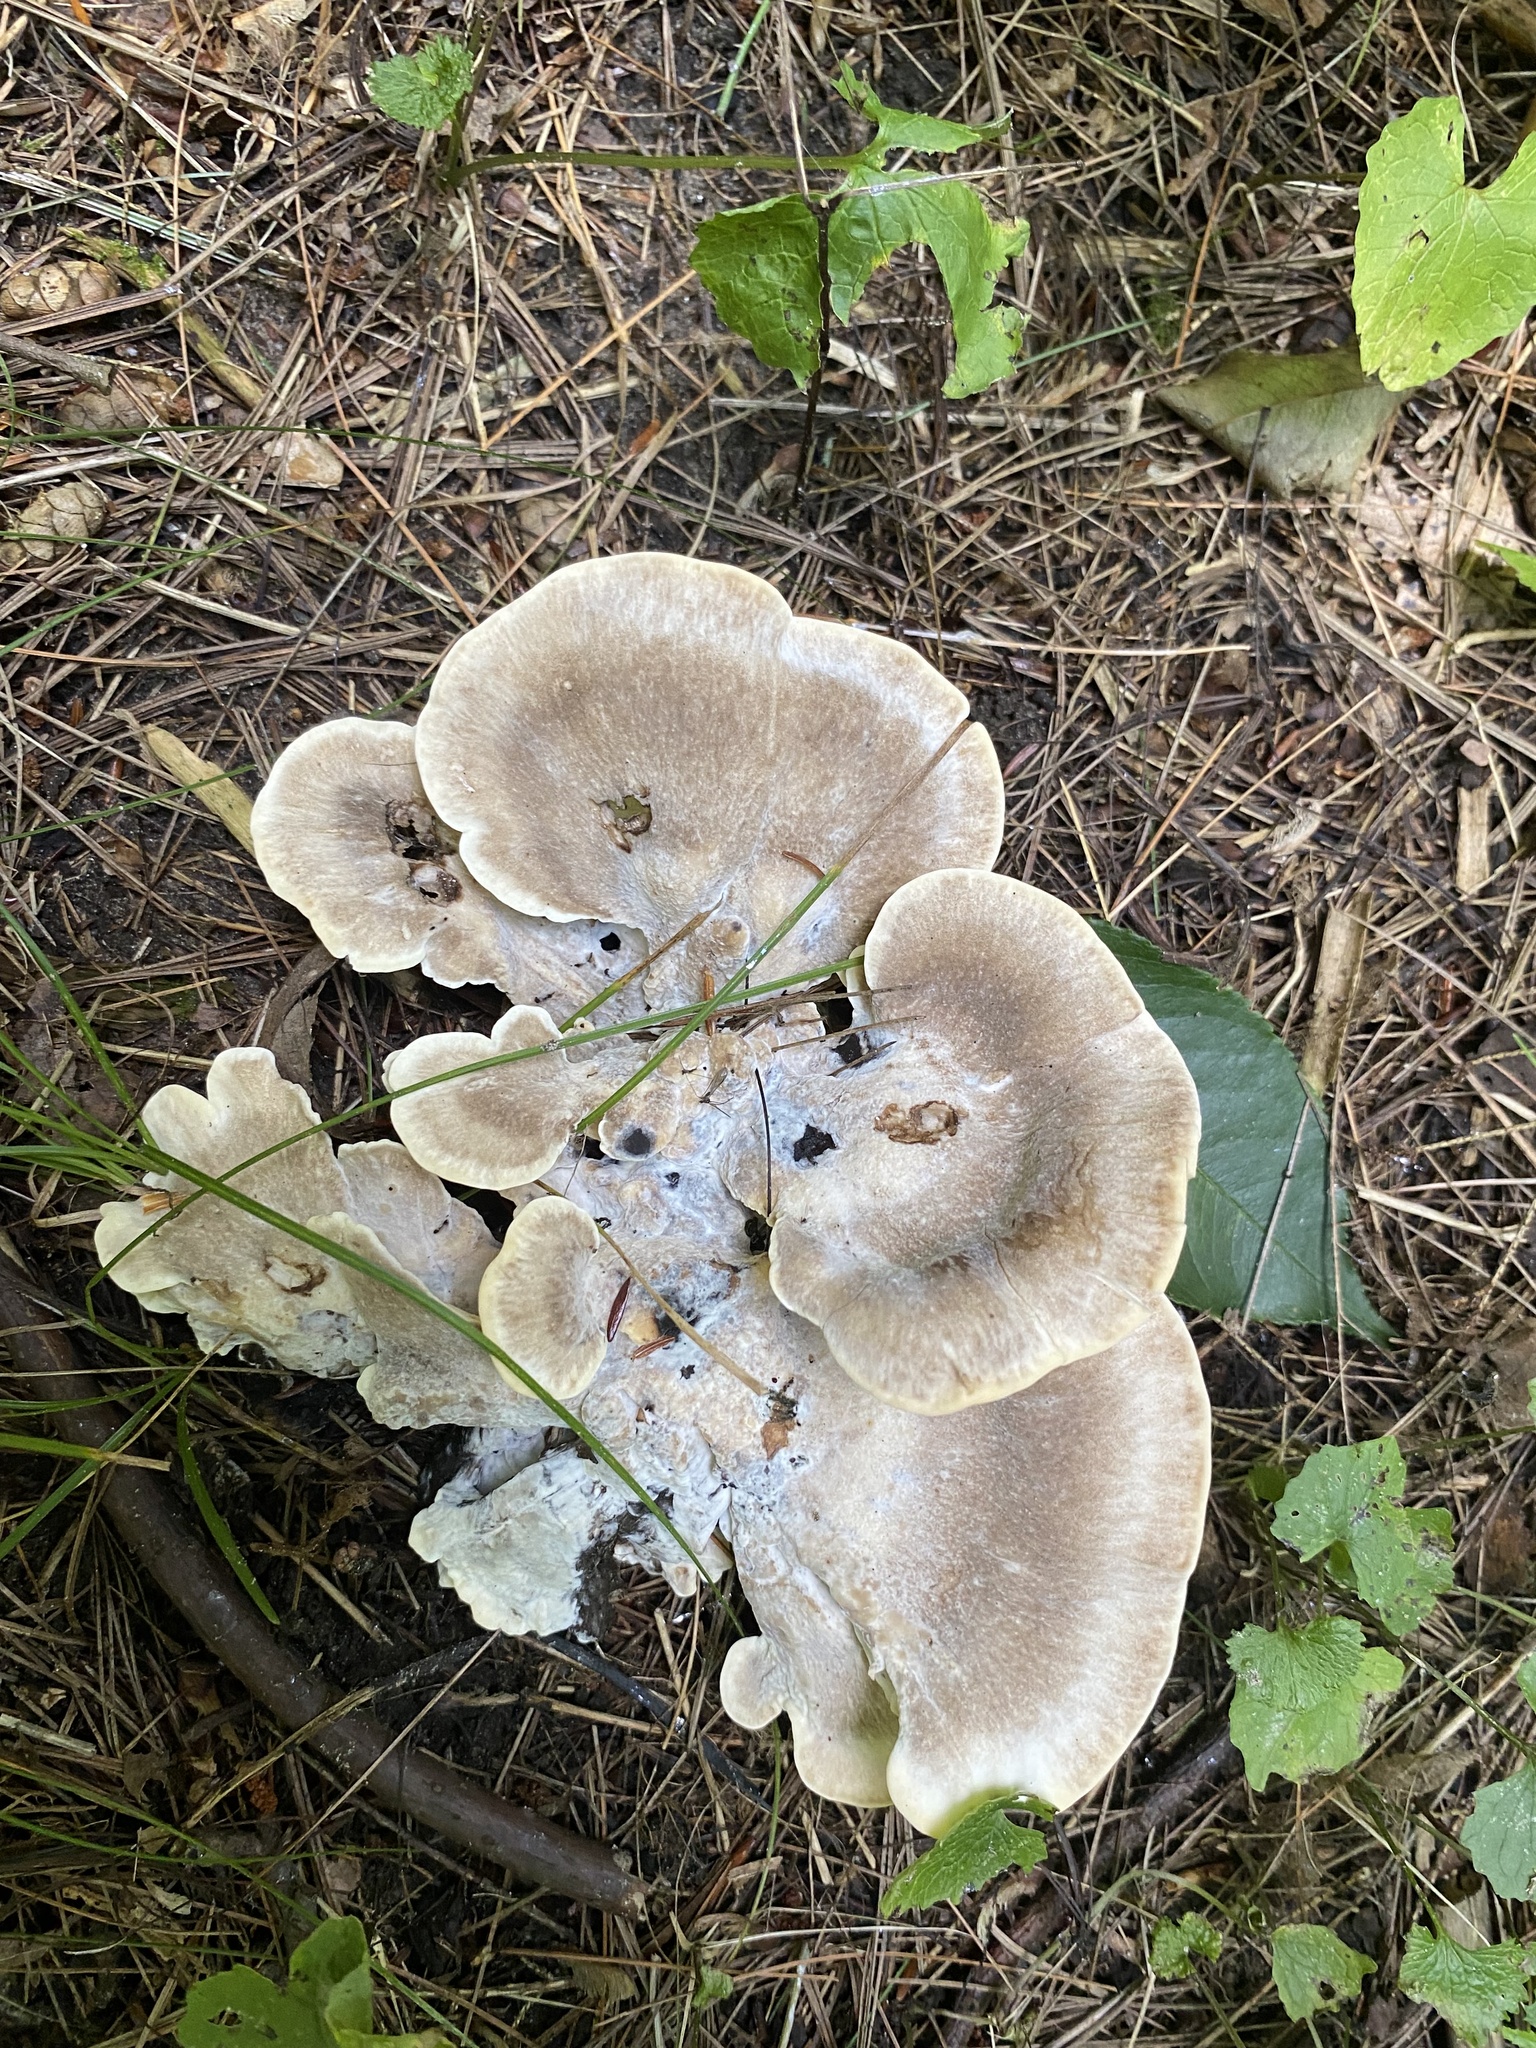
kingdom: Fungi
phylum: Basidiomycota
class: Agaricomycetes
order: Polyporales
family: Meripilaceae
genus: Meripilus
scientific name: Meripilus sumstinei
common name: Black-staining polypore
